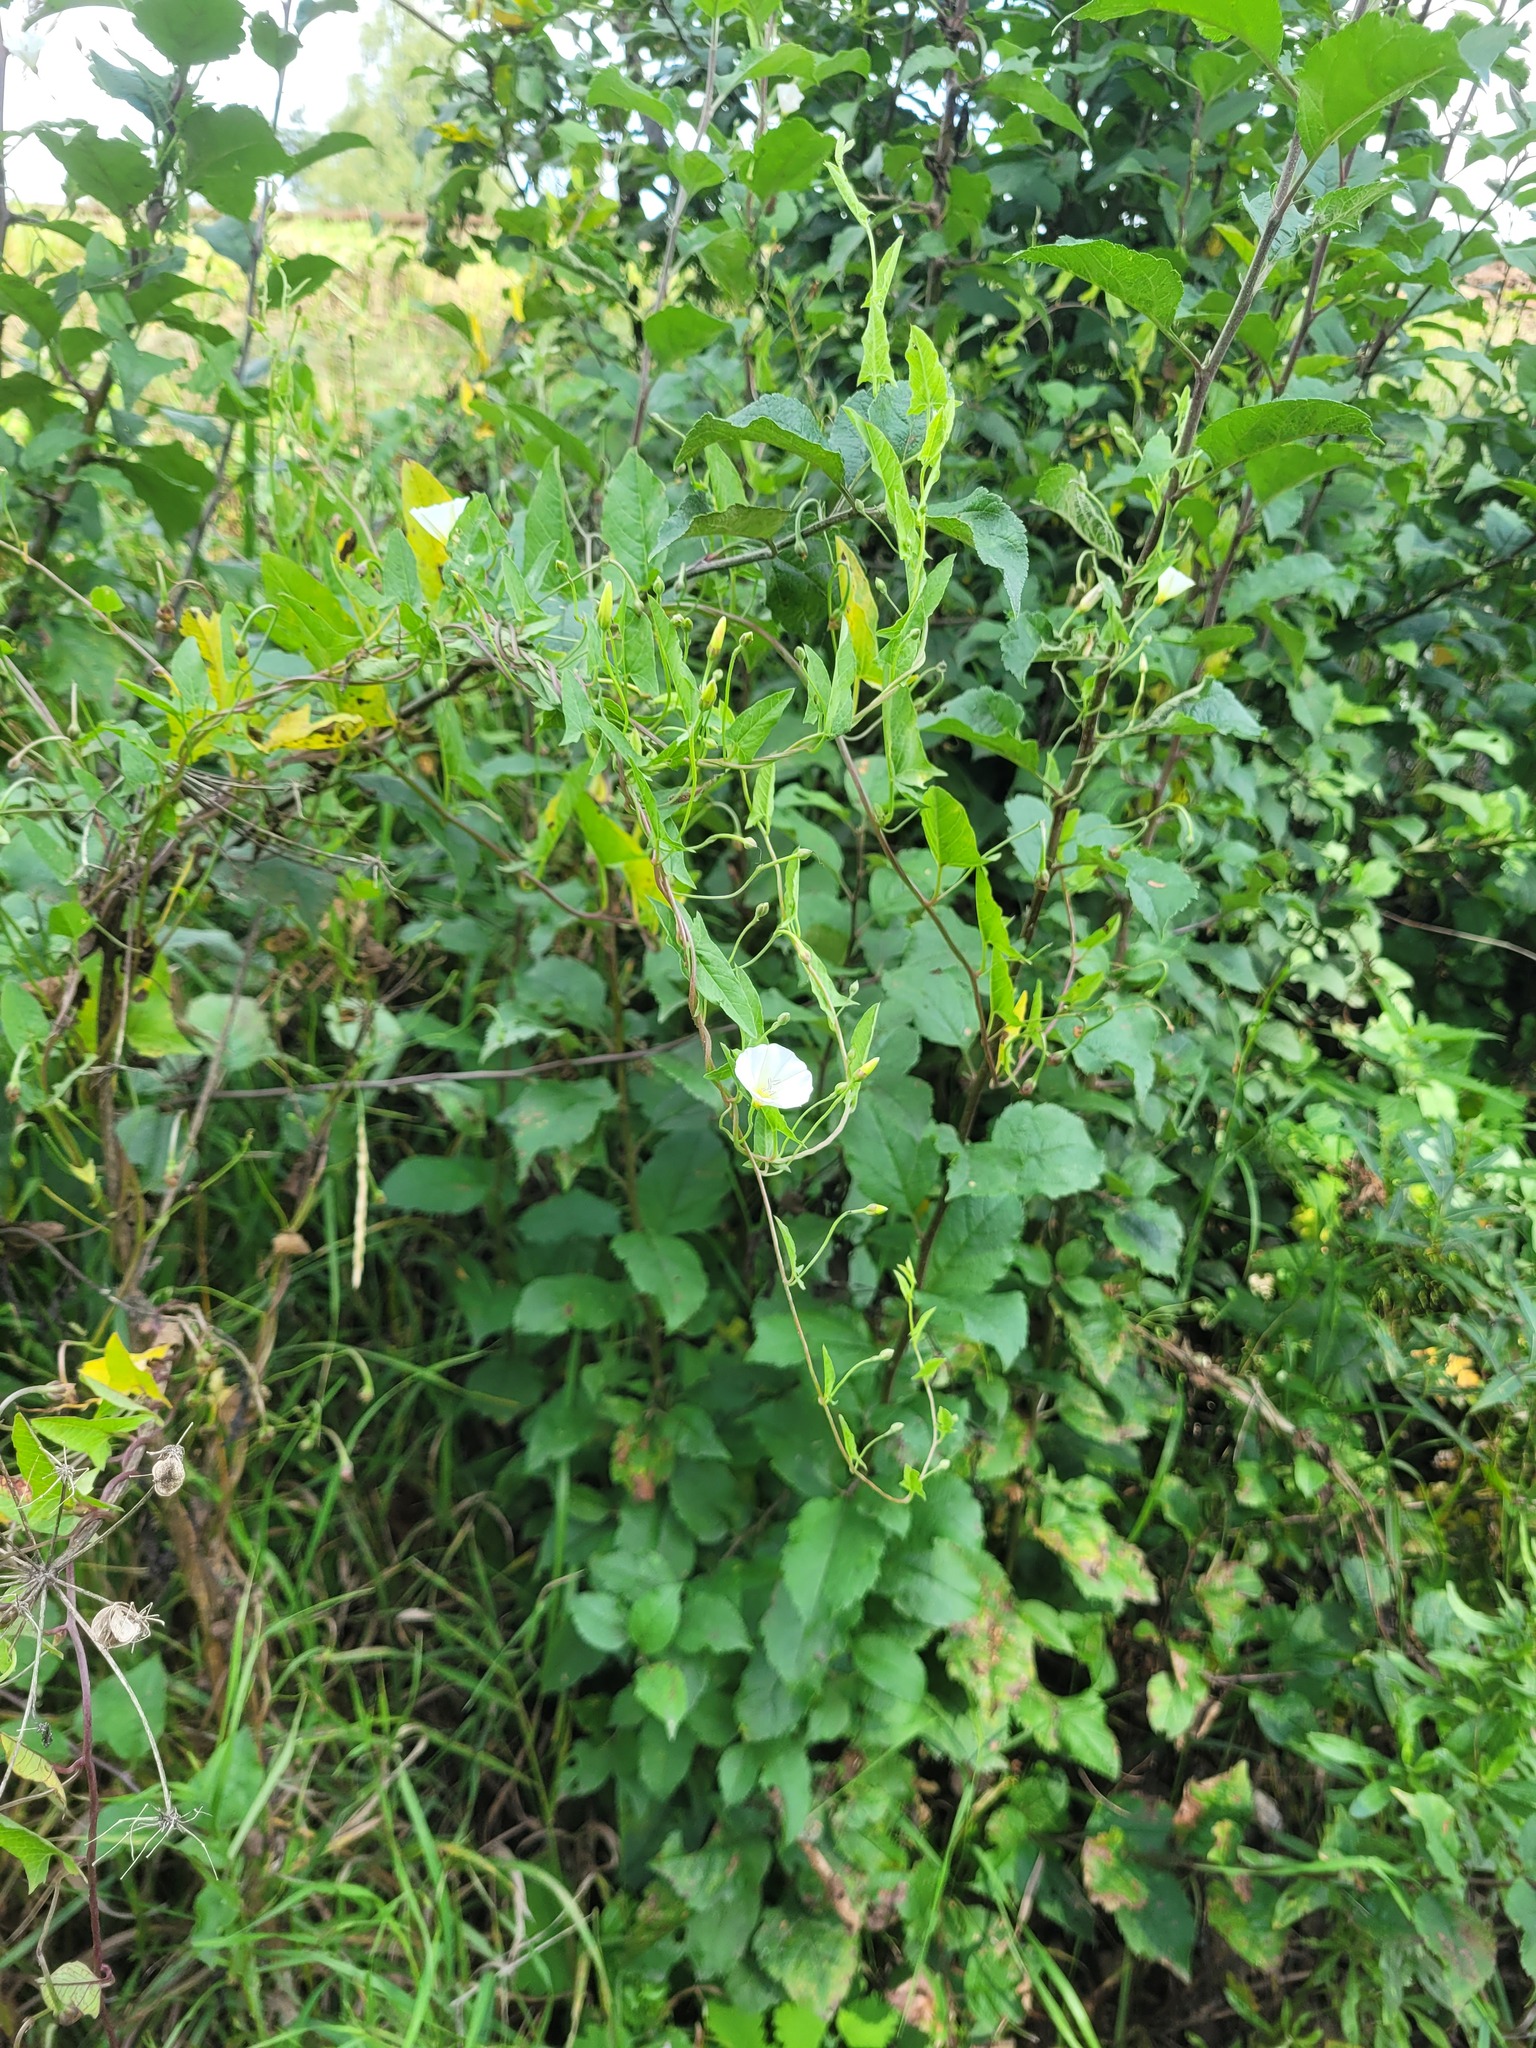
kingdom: Plantae
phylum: Tracheophyta
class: Magnoliopsida
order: Solanales
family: Convolvulaceae
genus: Convolvulus
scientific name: Convolvulus arvensis
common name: Field bindweed
